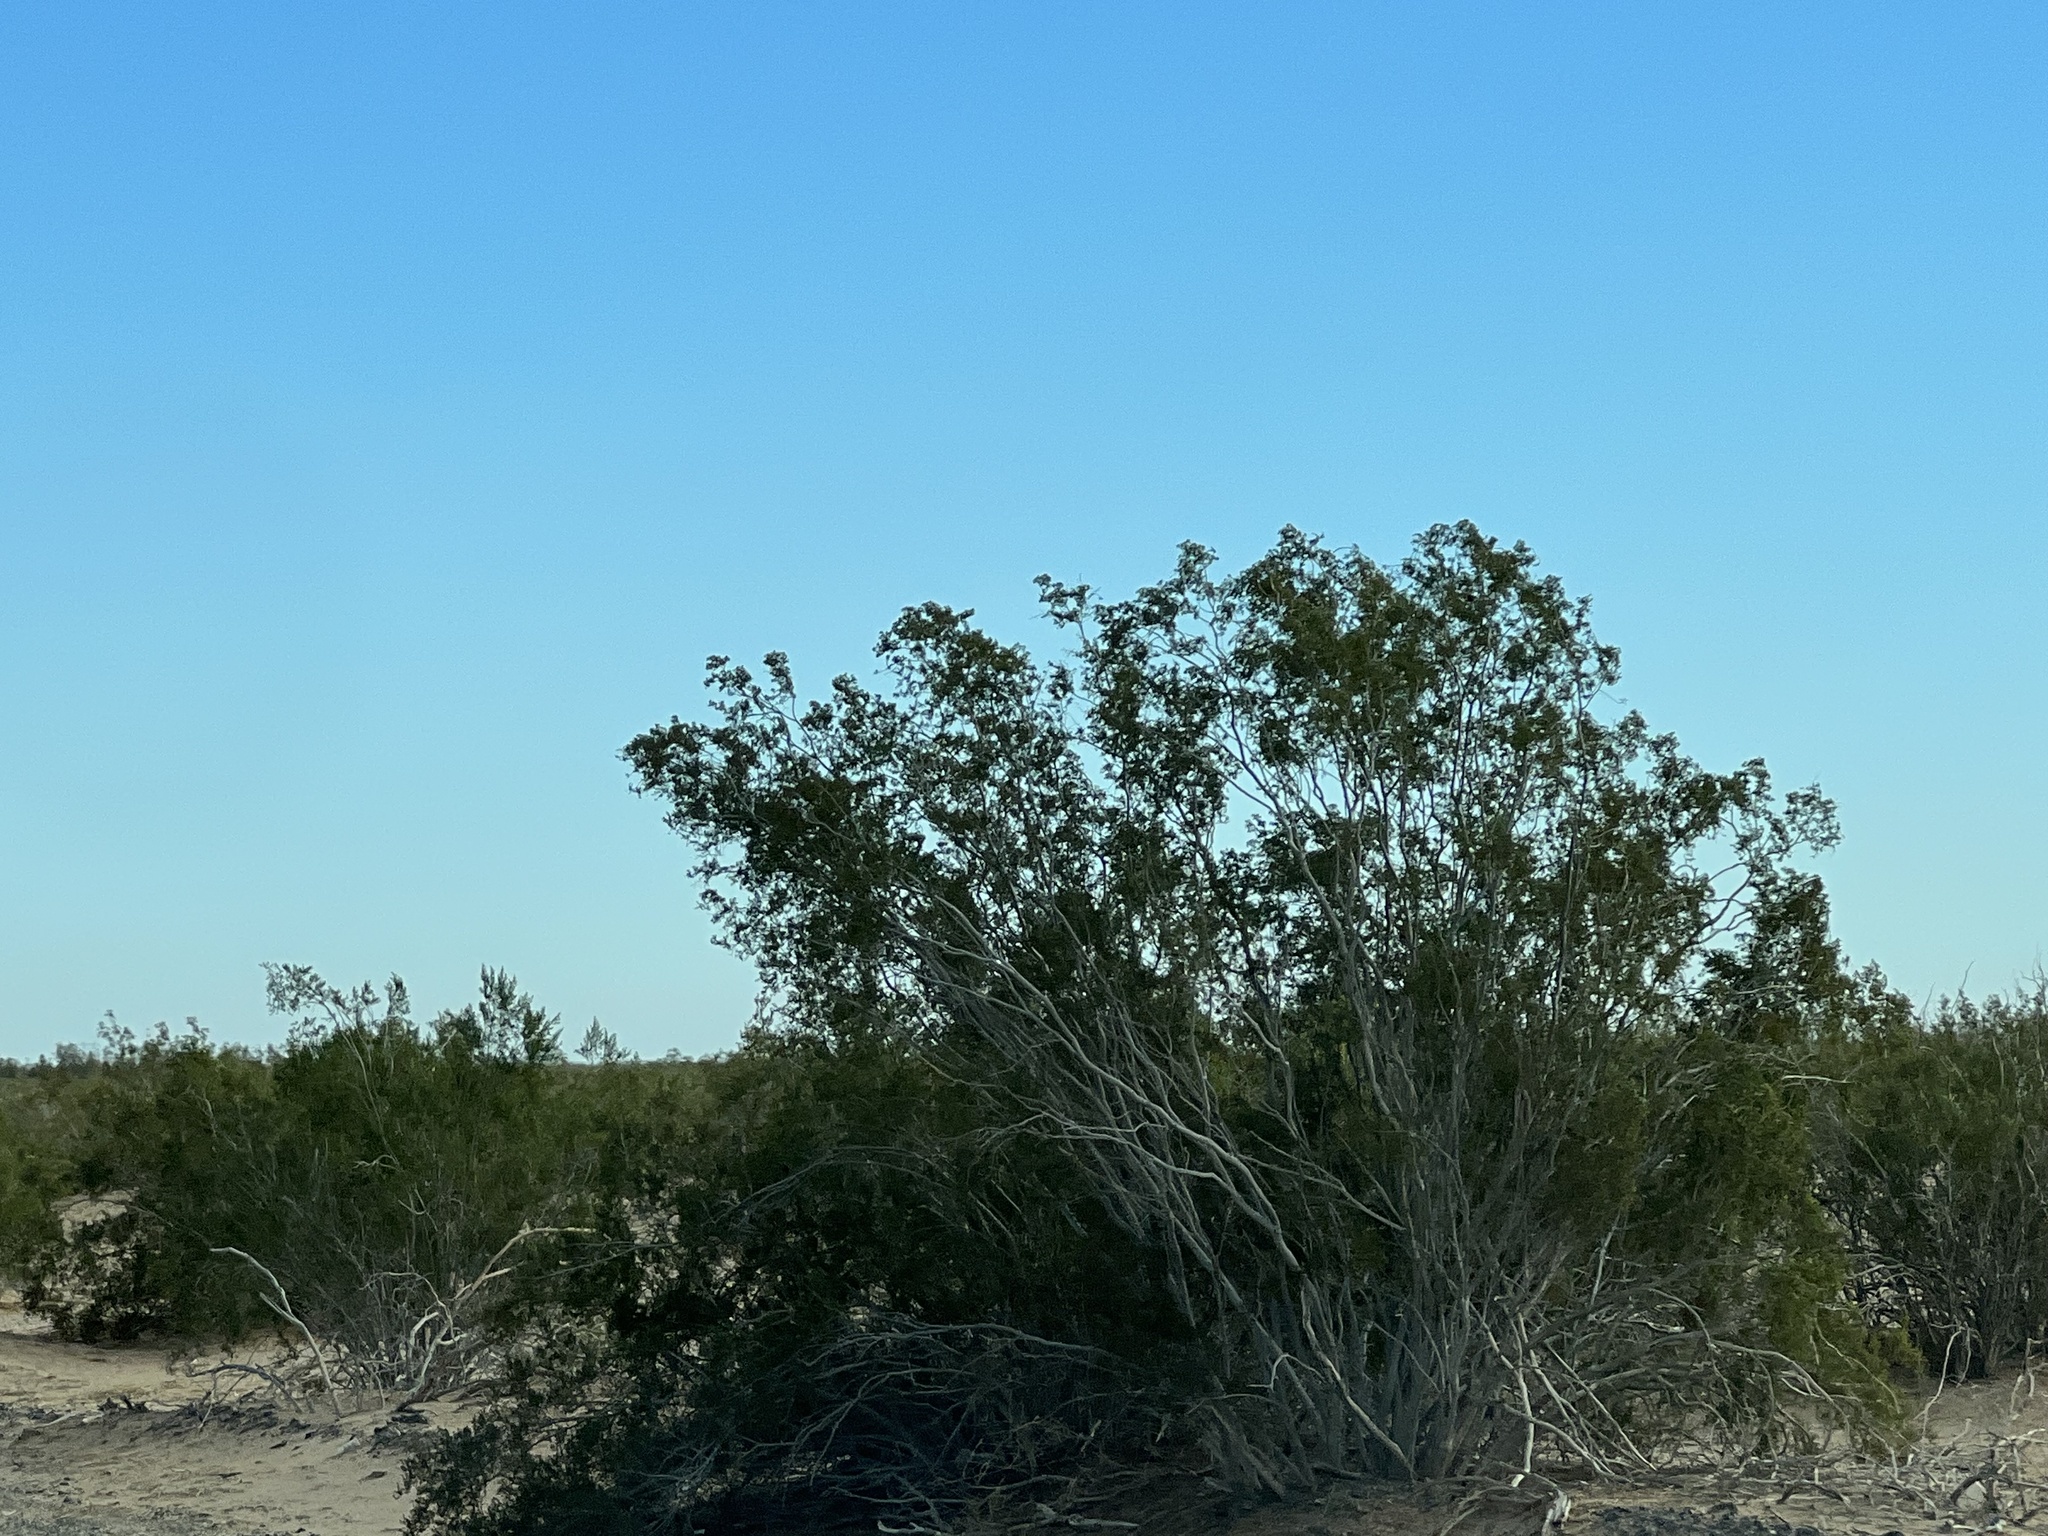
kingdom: Plantae
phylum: Tracheophyta
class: Magnoliopsida
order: Zygophyllales
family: Zygophyllaceae
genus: Larrea
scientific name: Larrea tridentata
